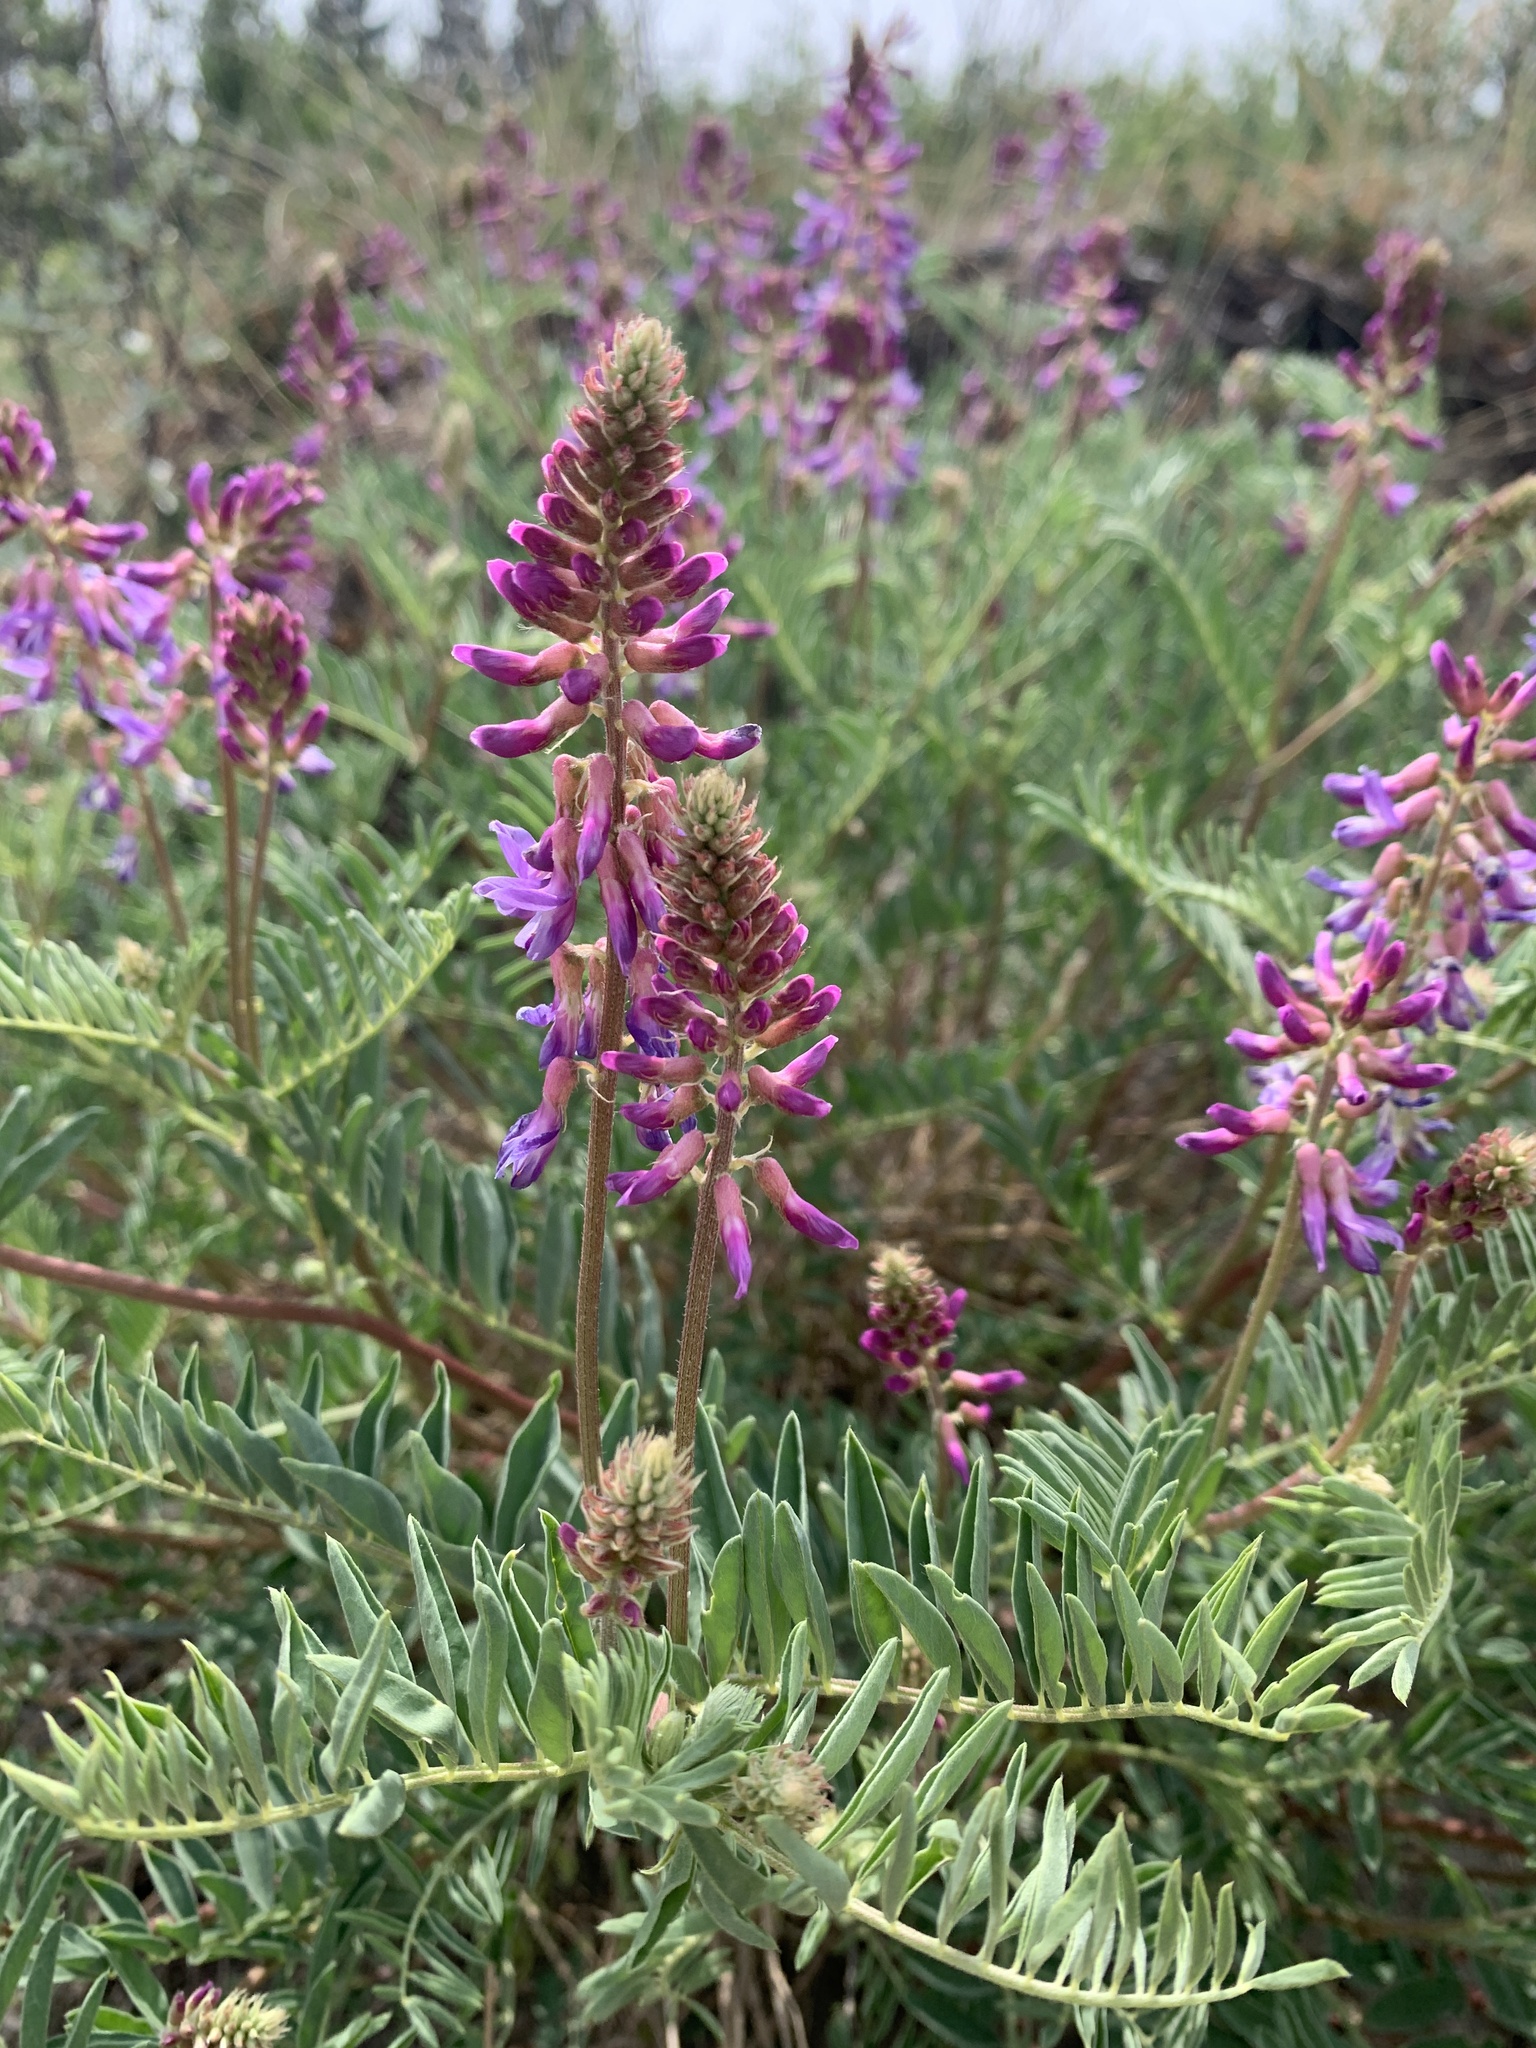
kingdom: Plantae
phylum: Tracheophyta
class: Magnoliopsida
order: Fabales
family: Fabaceae
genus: Astragalus
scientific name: Astragalus bisulcatus
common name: Two-groove milk-vetch
